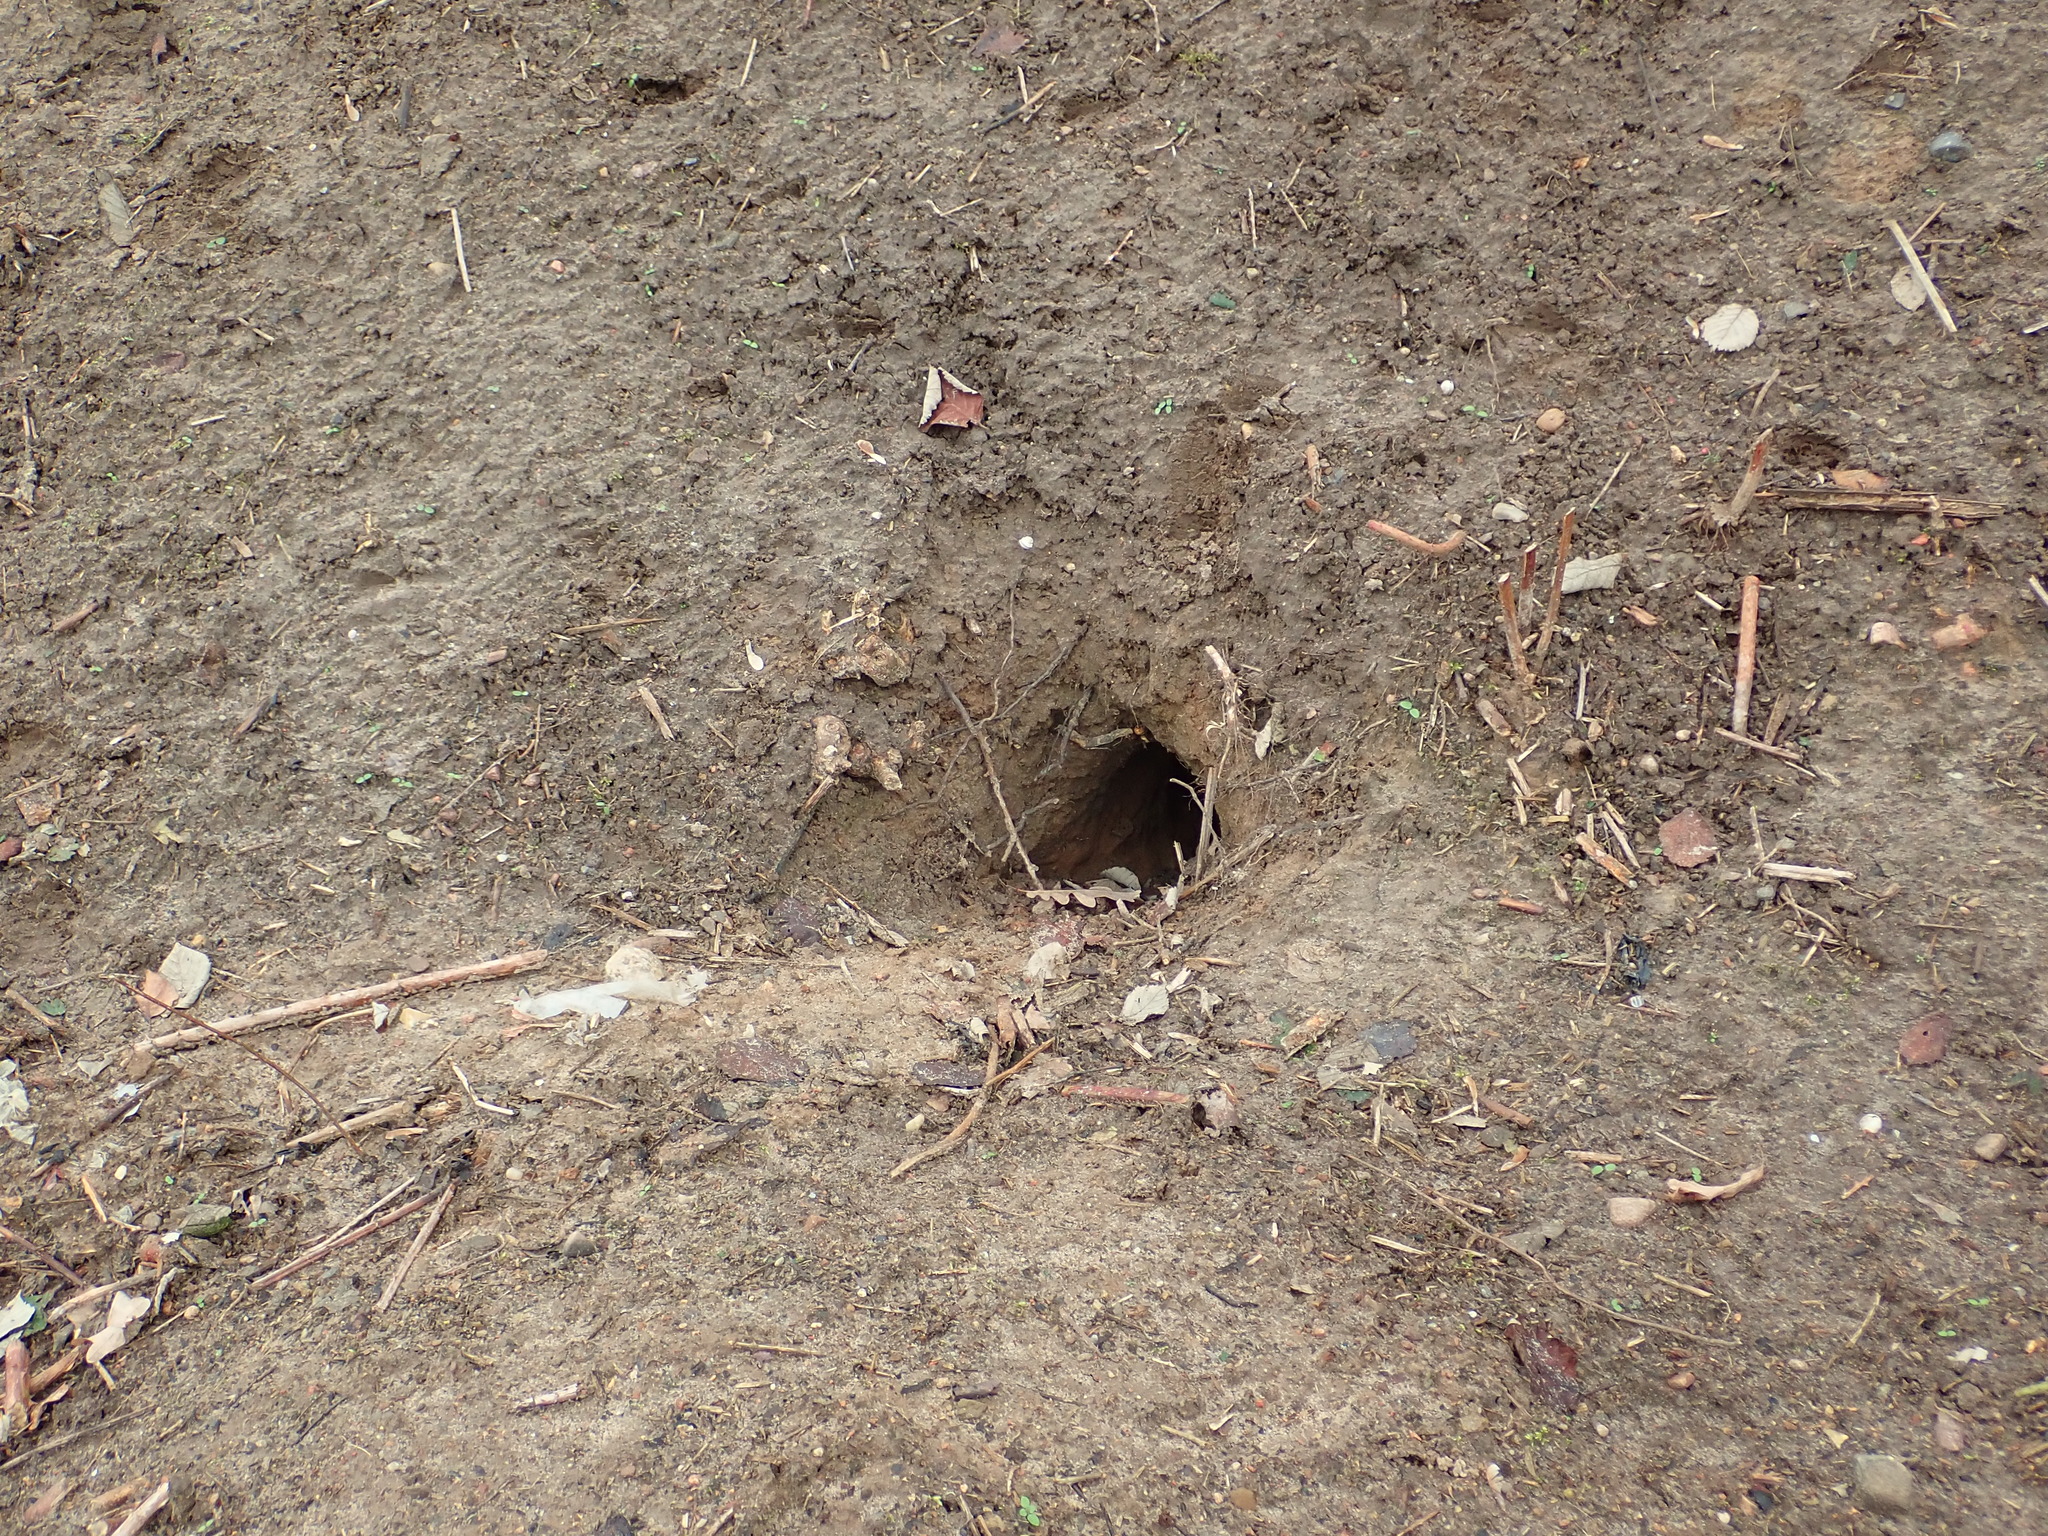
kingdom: Animalia
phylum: Chordata
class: Mammalia
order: Carnivora
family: Canidae
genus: Vulpes
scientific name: Vulpes vulpes
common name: Red fox
